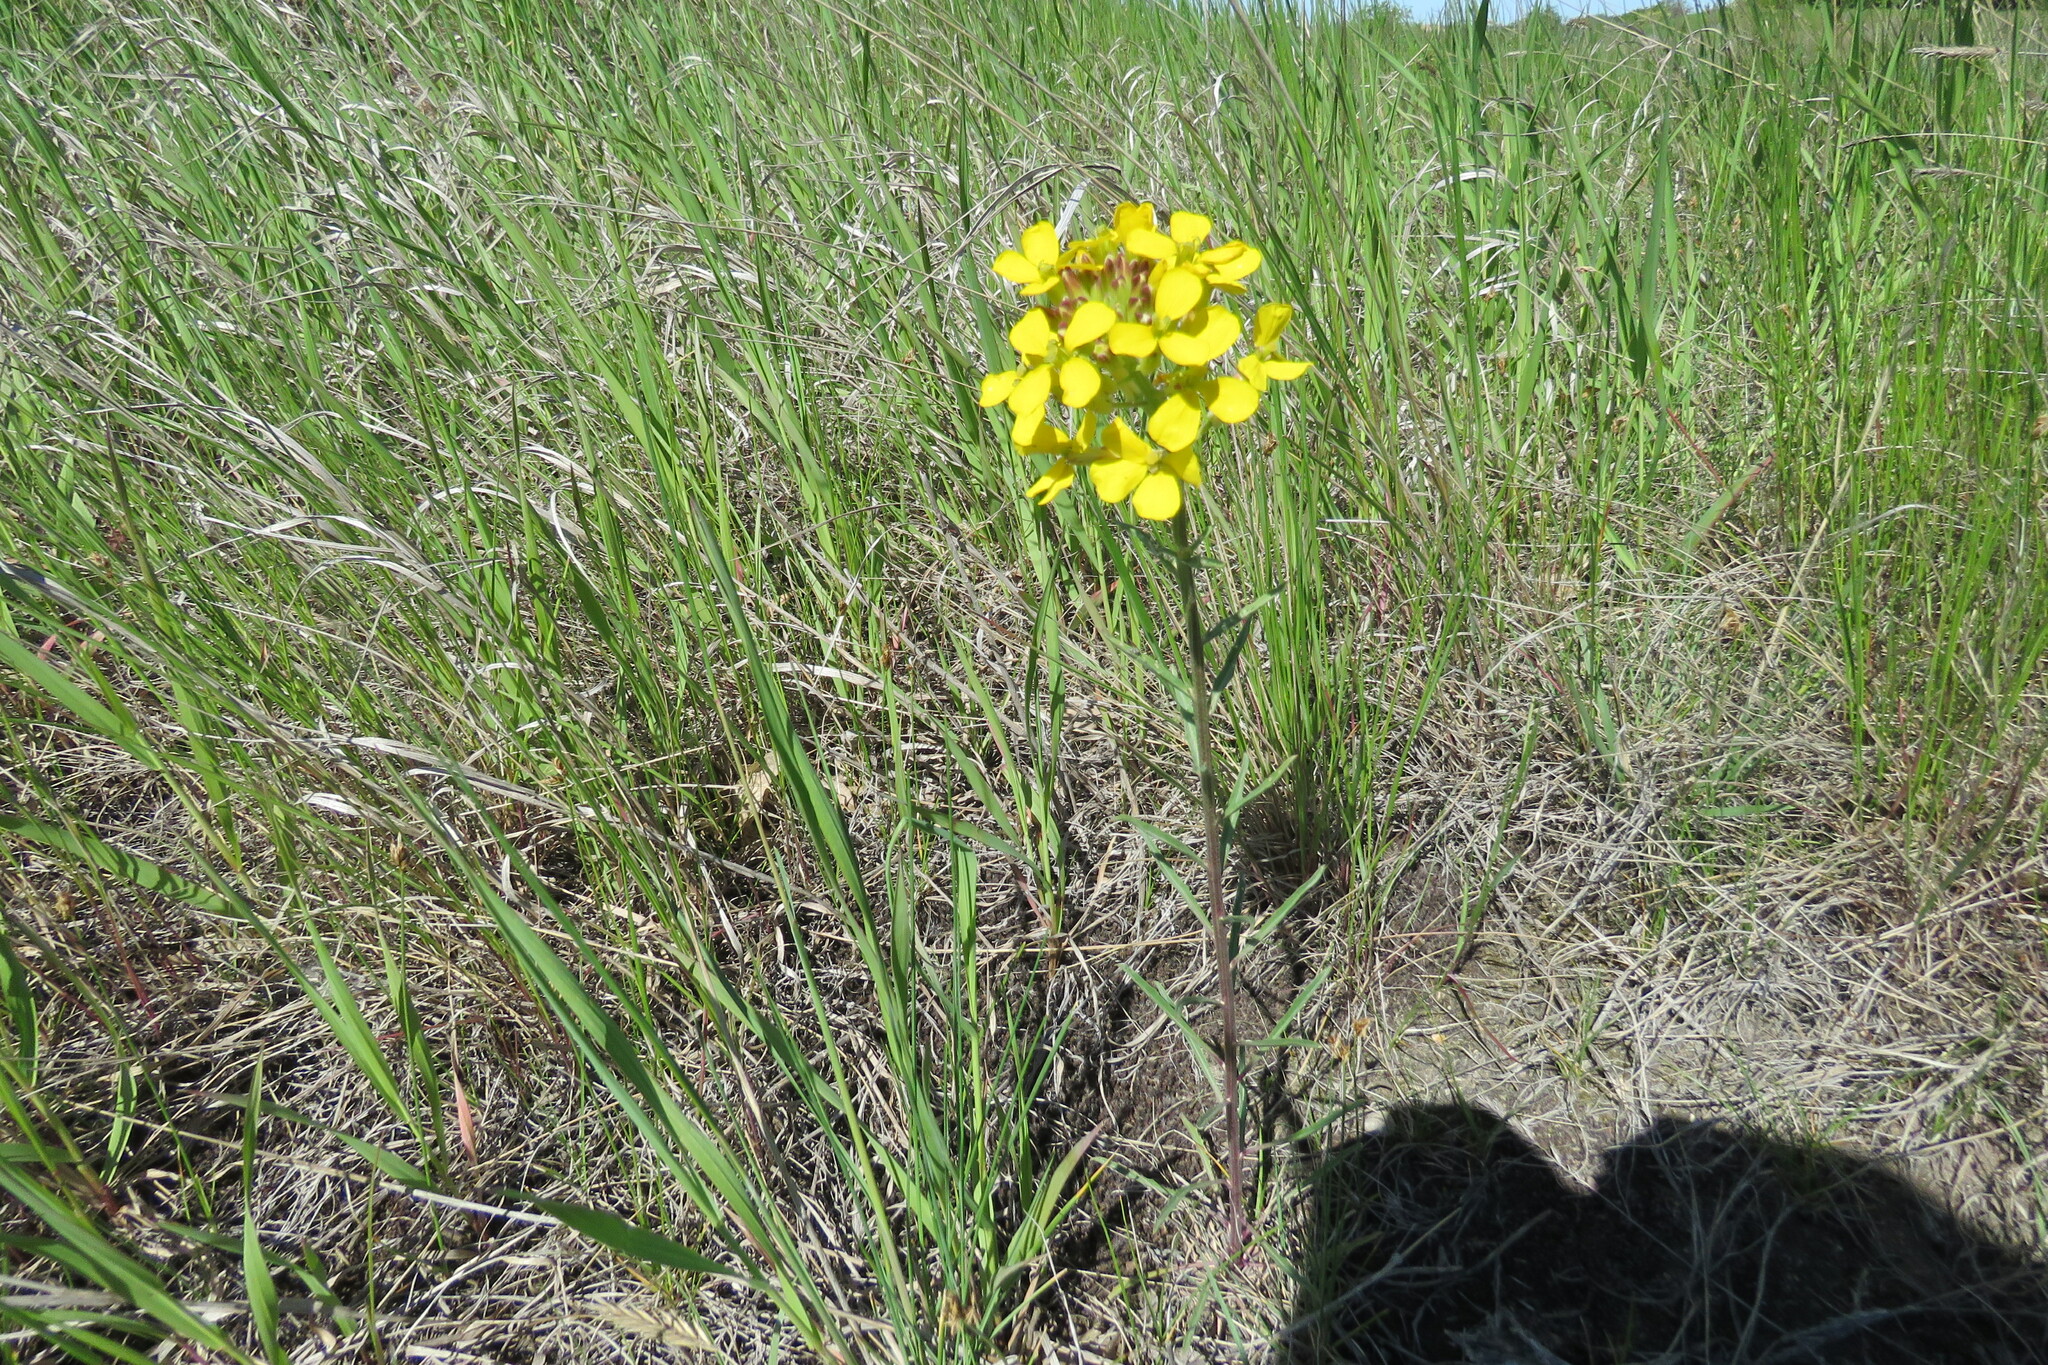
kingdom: Plantae
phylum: Tracheophyta
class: Magnoliopsida
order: Brassicales
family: Brassicaceae
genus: Erysimum
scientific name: Erysimum capitatum
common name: Western wallflower
